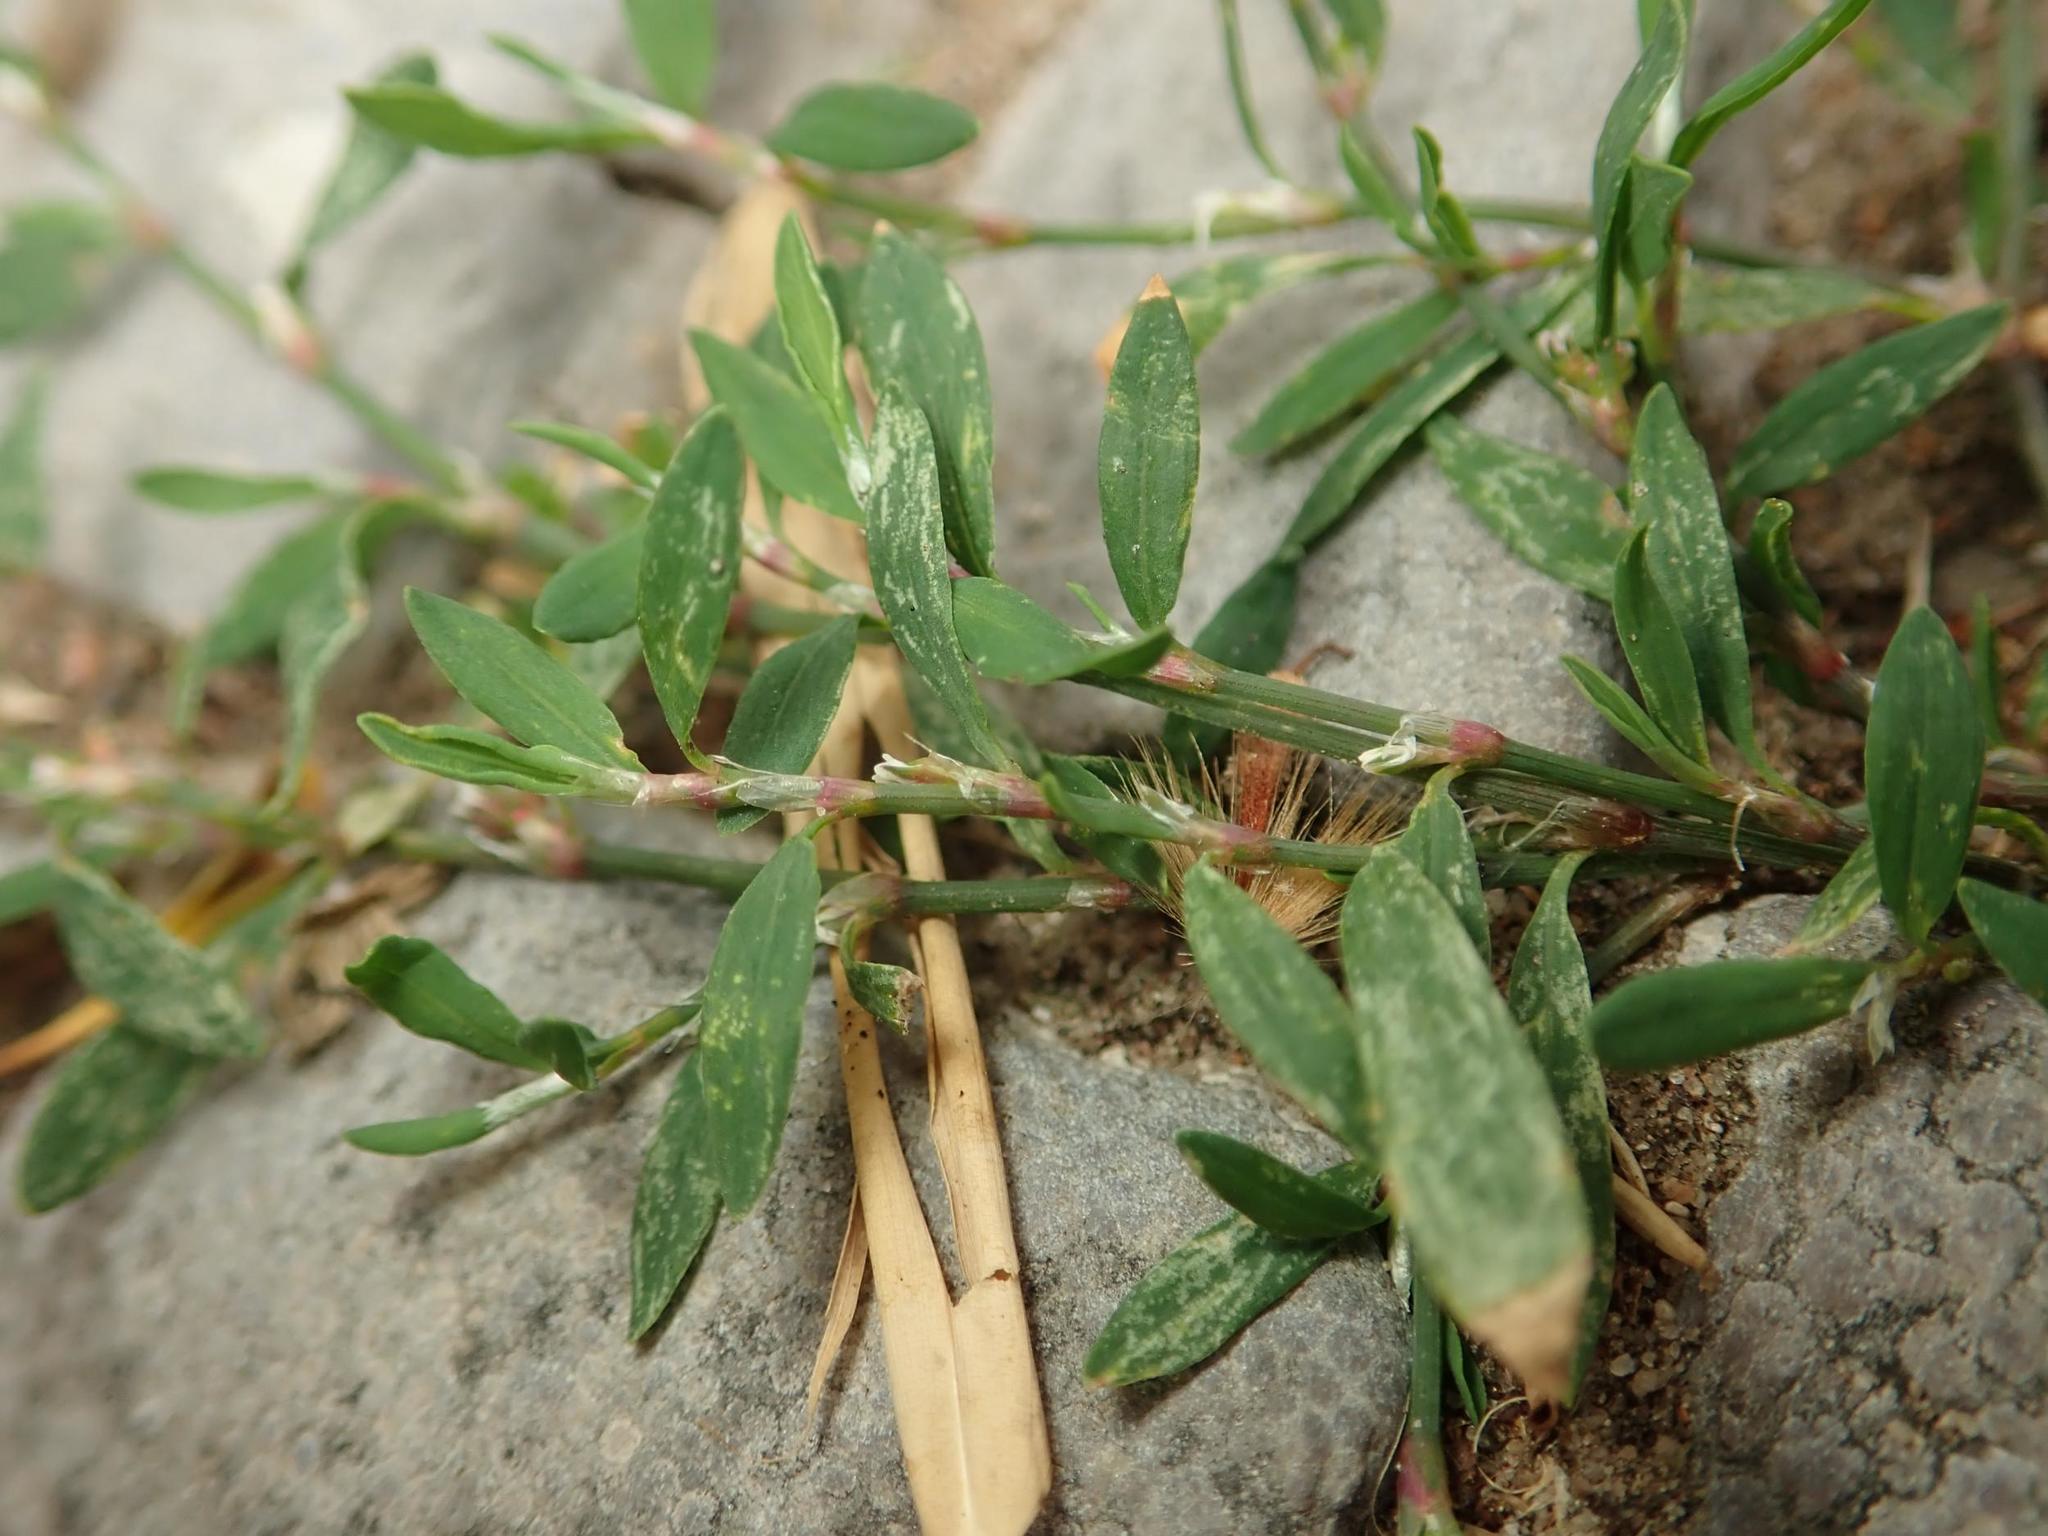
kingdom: Plantae
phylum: Tracheophyta
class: Magnoliopsida
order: Caryophyllales
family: Polygonaceae
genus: Polygonum
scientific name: Polygonum aviculare
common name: Prostrate knotweed
